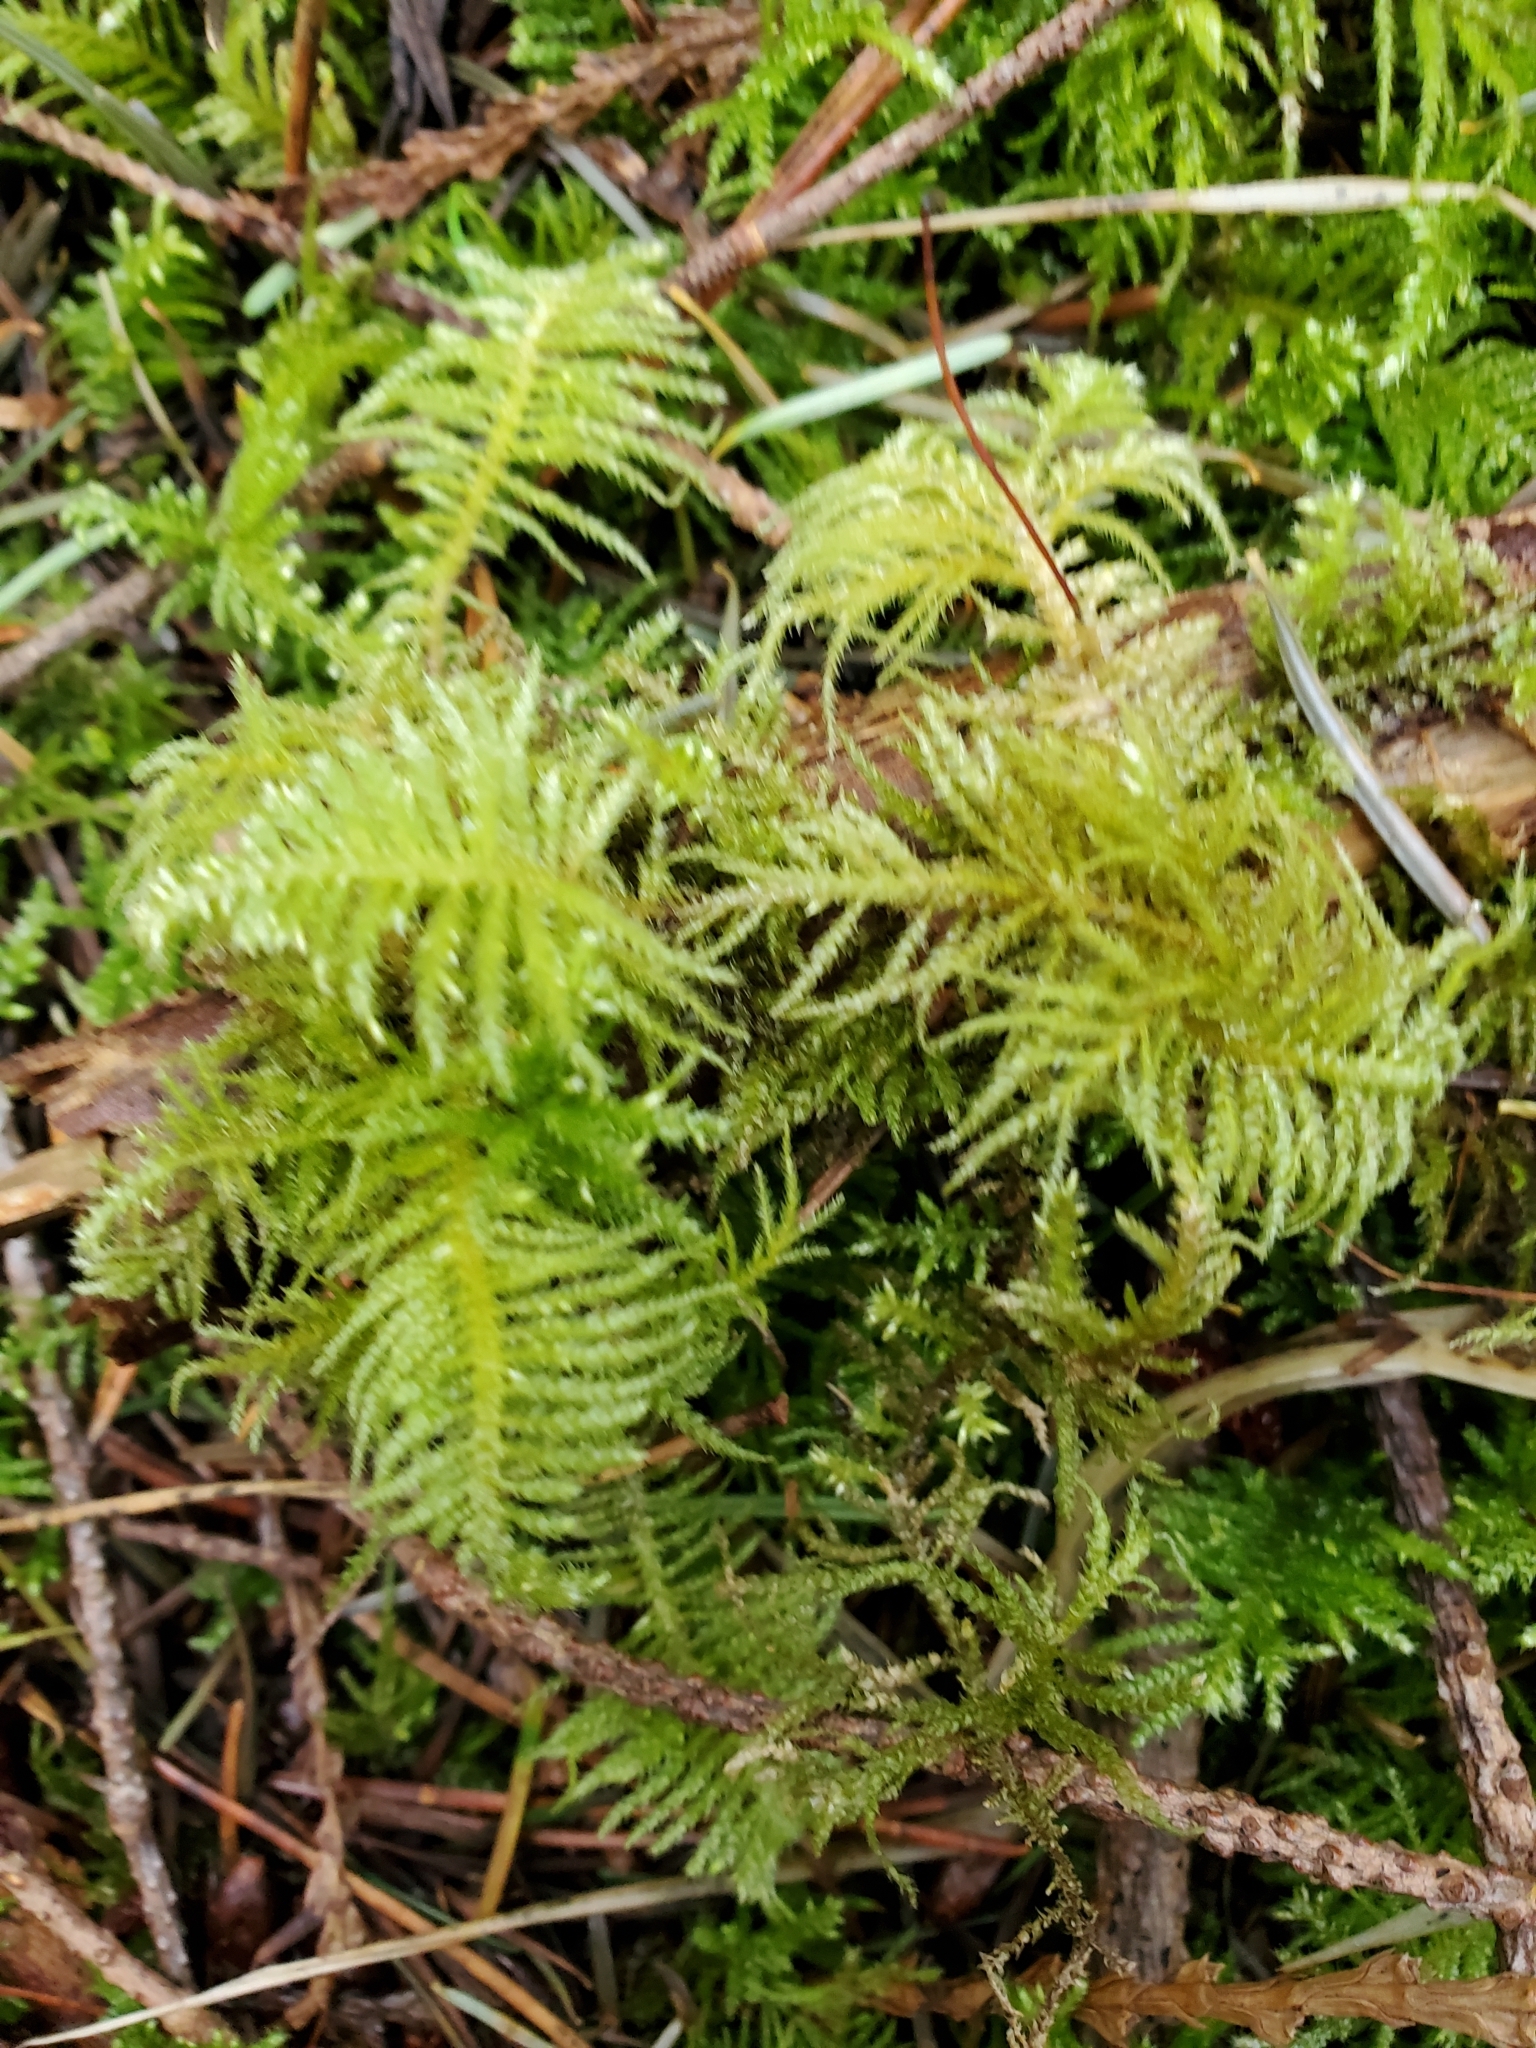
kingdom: Plantae
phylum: Bryophyta
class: Bryopsida
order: Hypnales
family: Brachytheciaceae
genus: Kindbergia
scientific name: Kindbergia oregana
